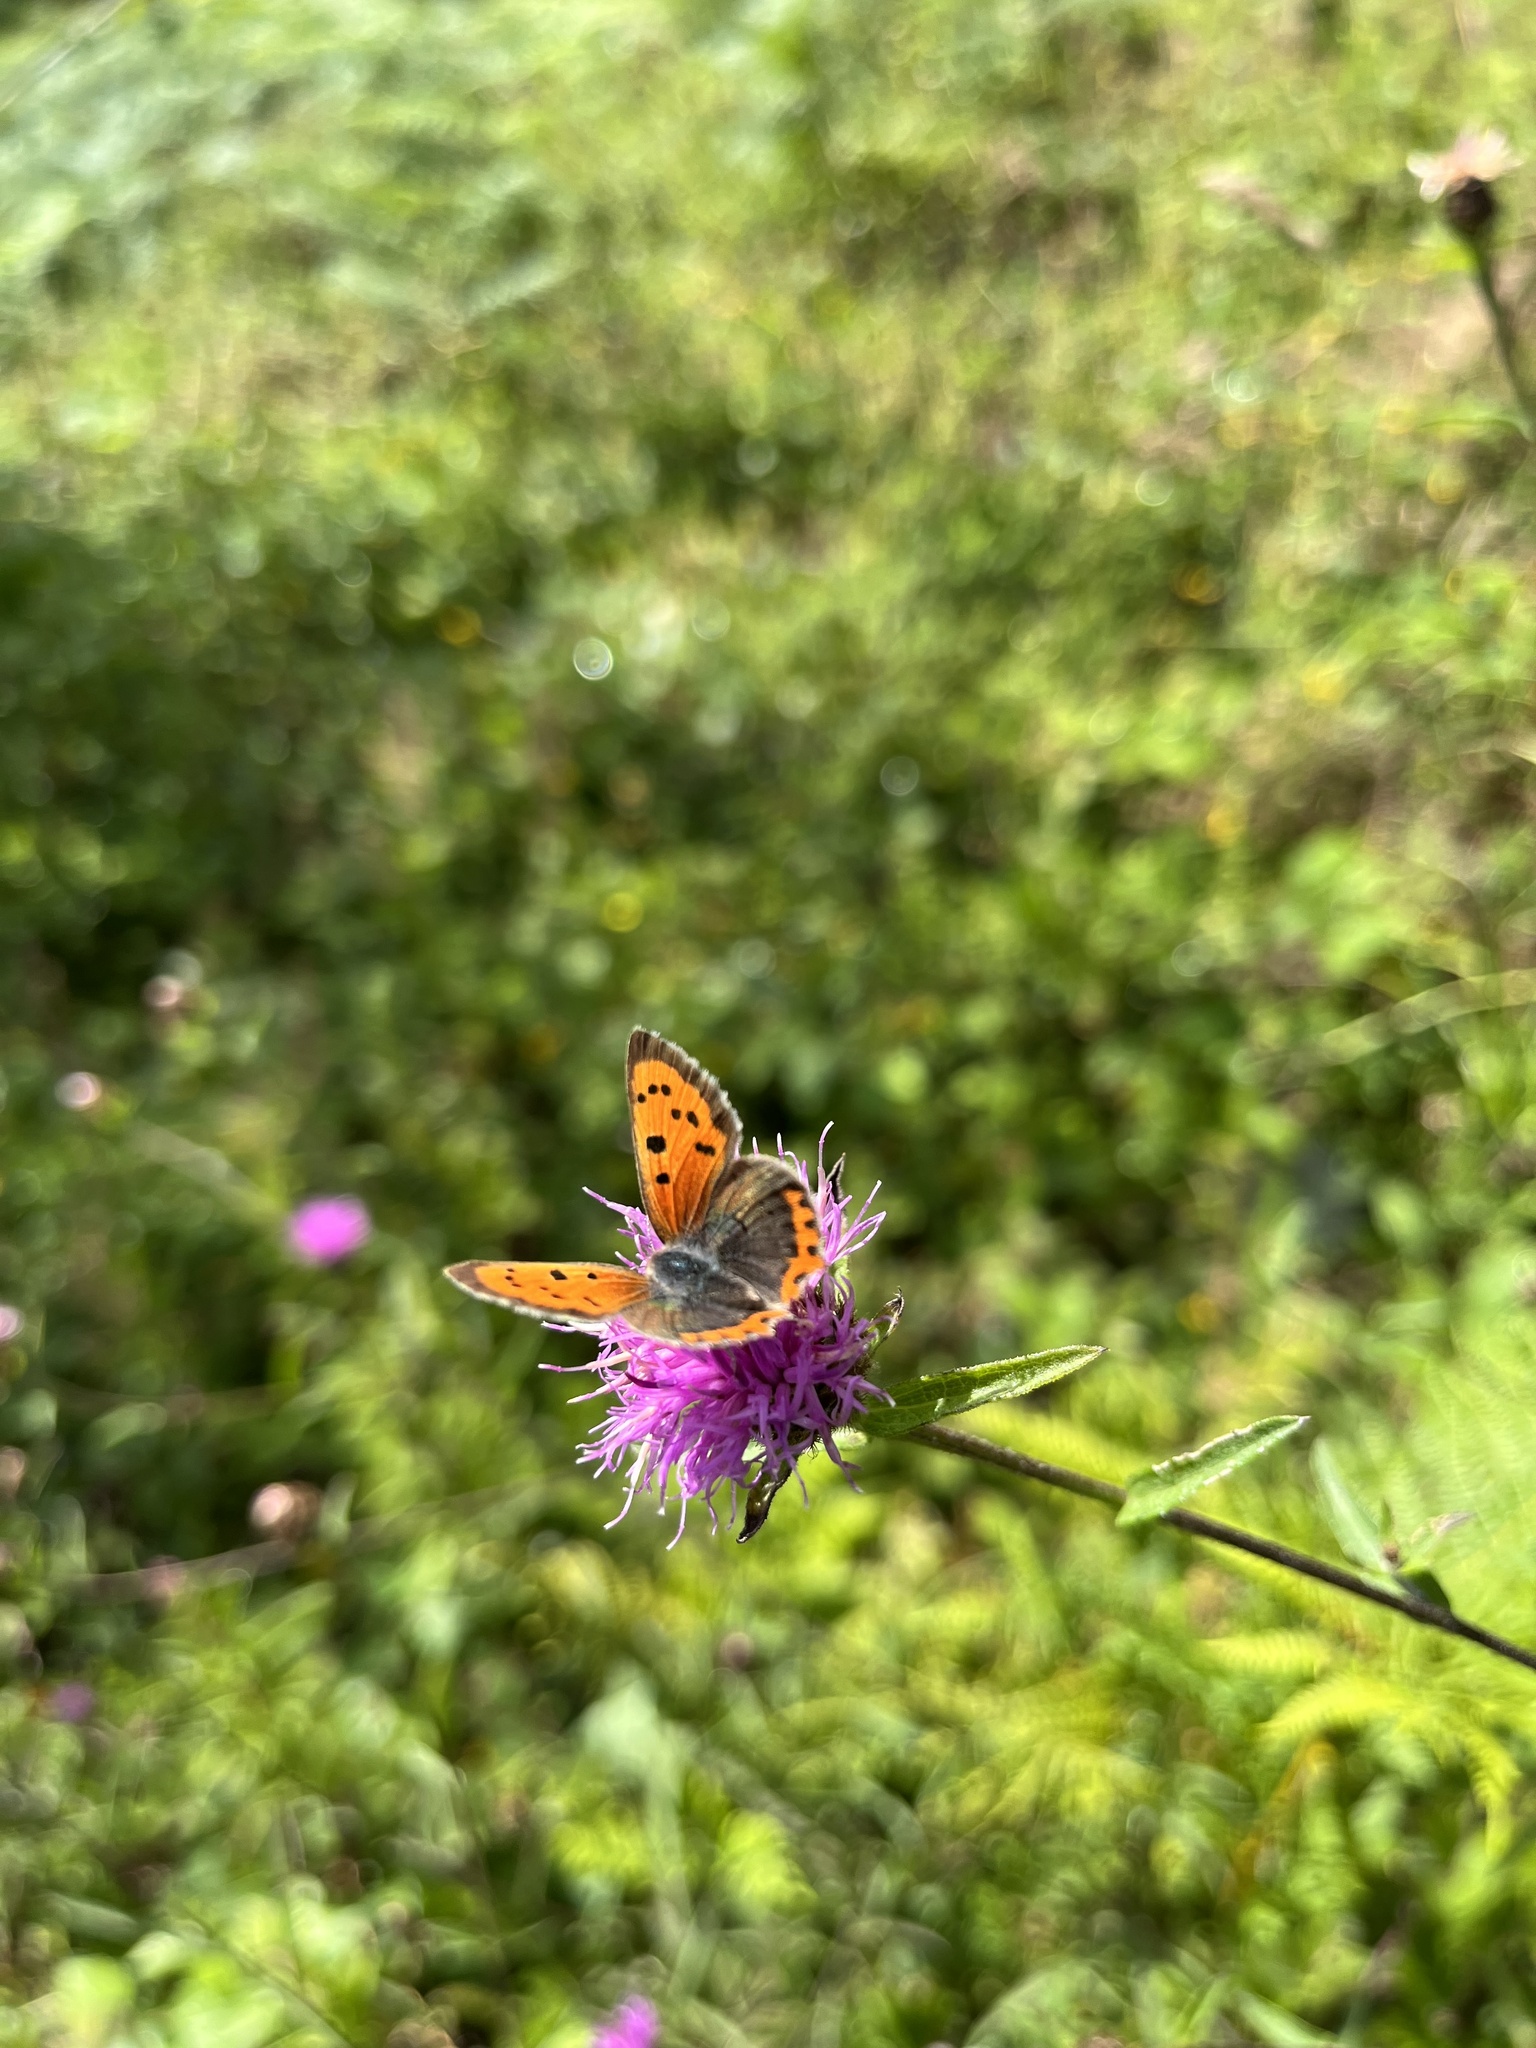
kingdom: Animalia
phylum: Arthropoda
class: Insecta
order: Lepidoptera
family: Lycaenidae
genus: Lycaena
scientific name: Lycaena phlaeas
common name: Small copper
